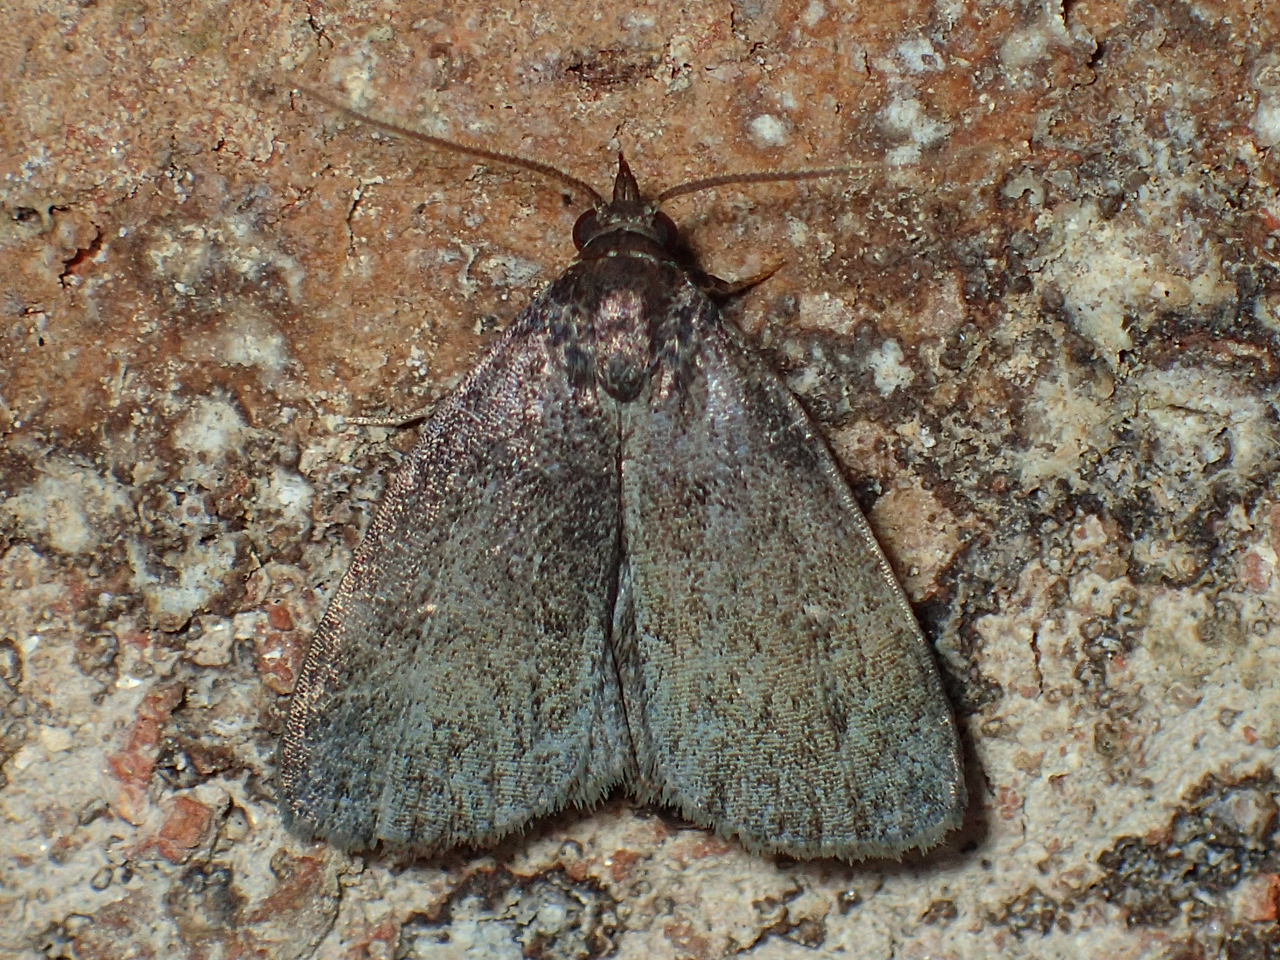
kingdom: Animalia
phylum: Arthropoda
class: Insecta
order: Lepidoptera
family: Erebidae
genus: Idia
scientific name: Idia rotundalis
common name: Rotund idia moth
